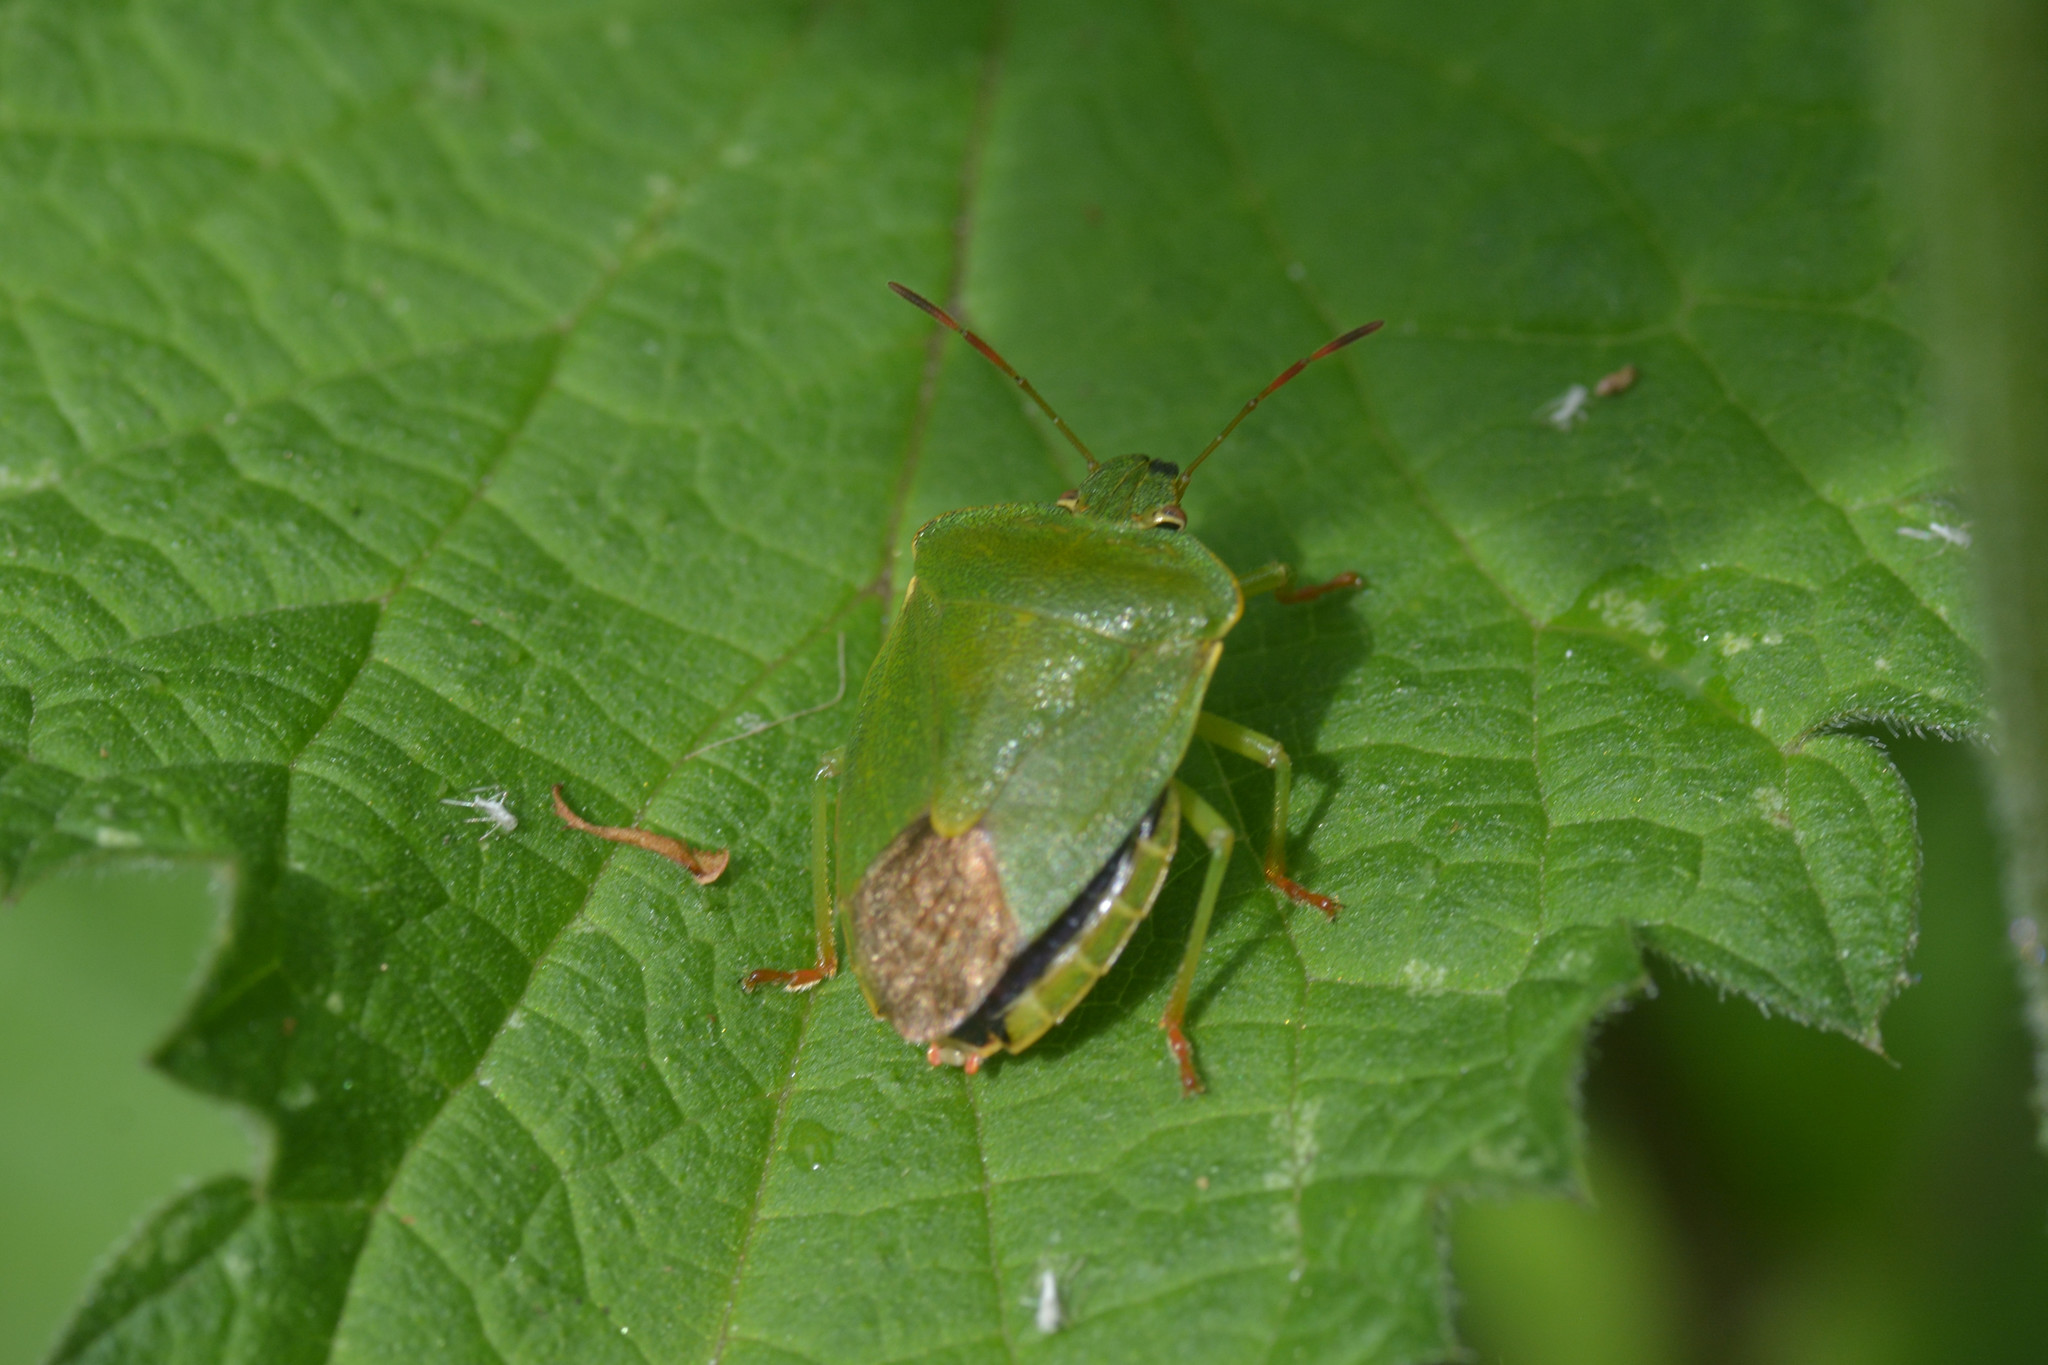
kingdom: Animalia
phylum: Arthropoda
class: Insecta
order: Hemiptera
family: Pentatomidae
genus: Palomena
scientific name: Palomena prasina
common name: Green shieldbug
